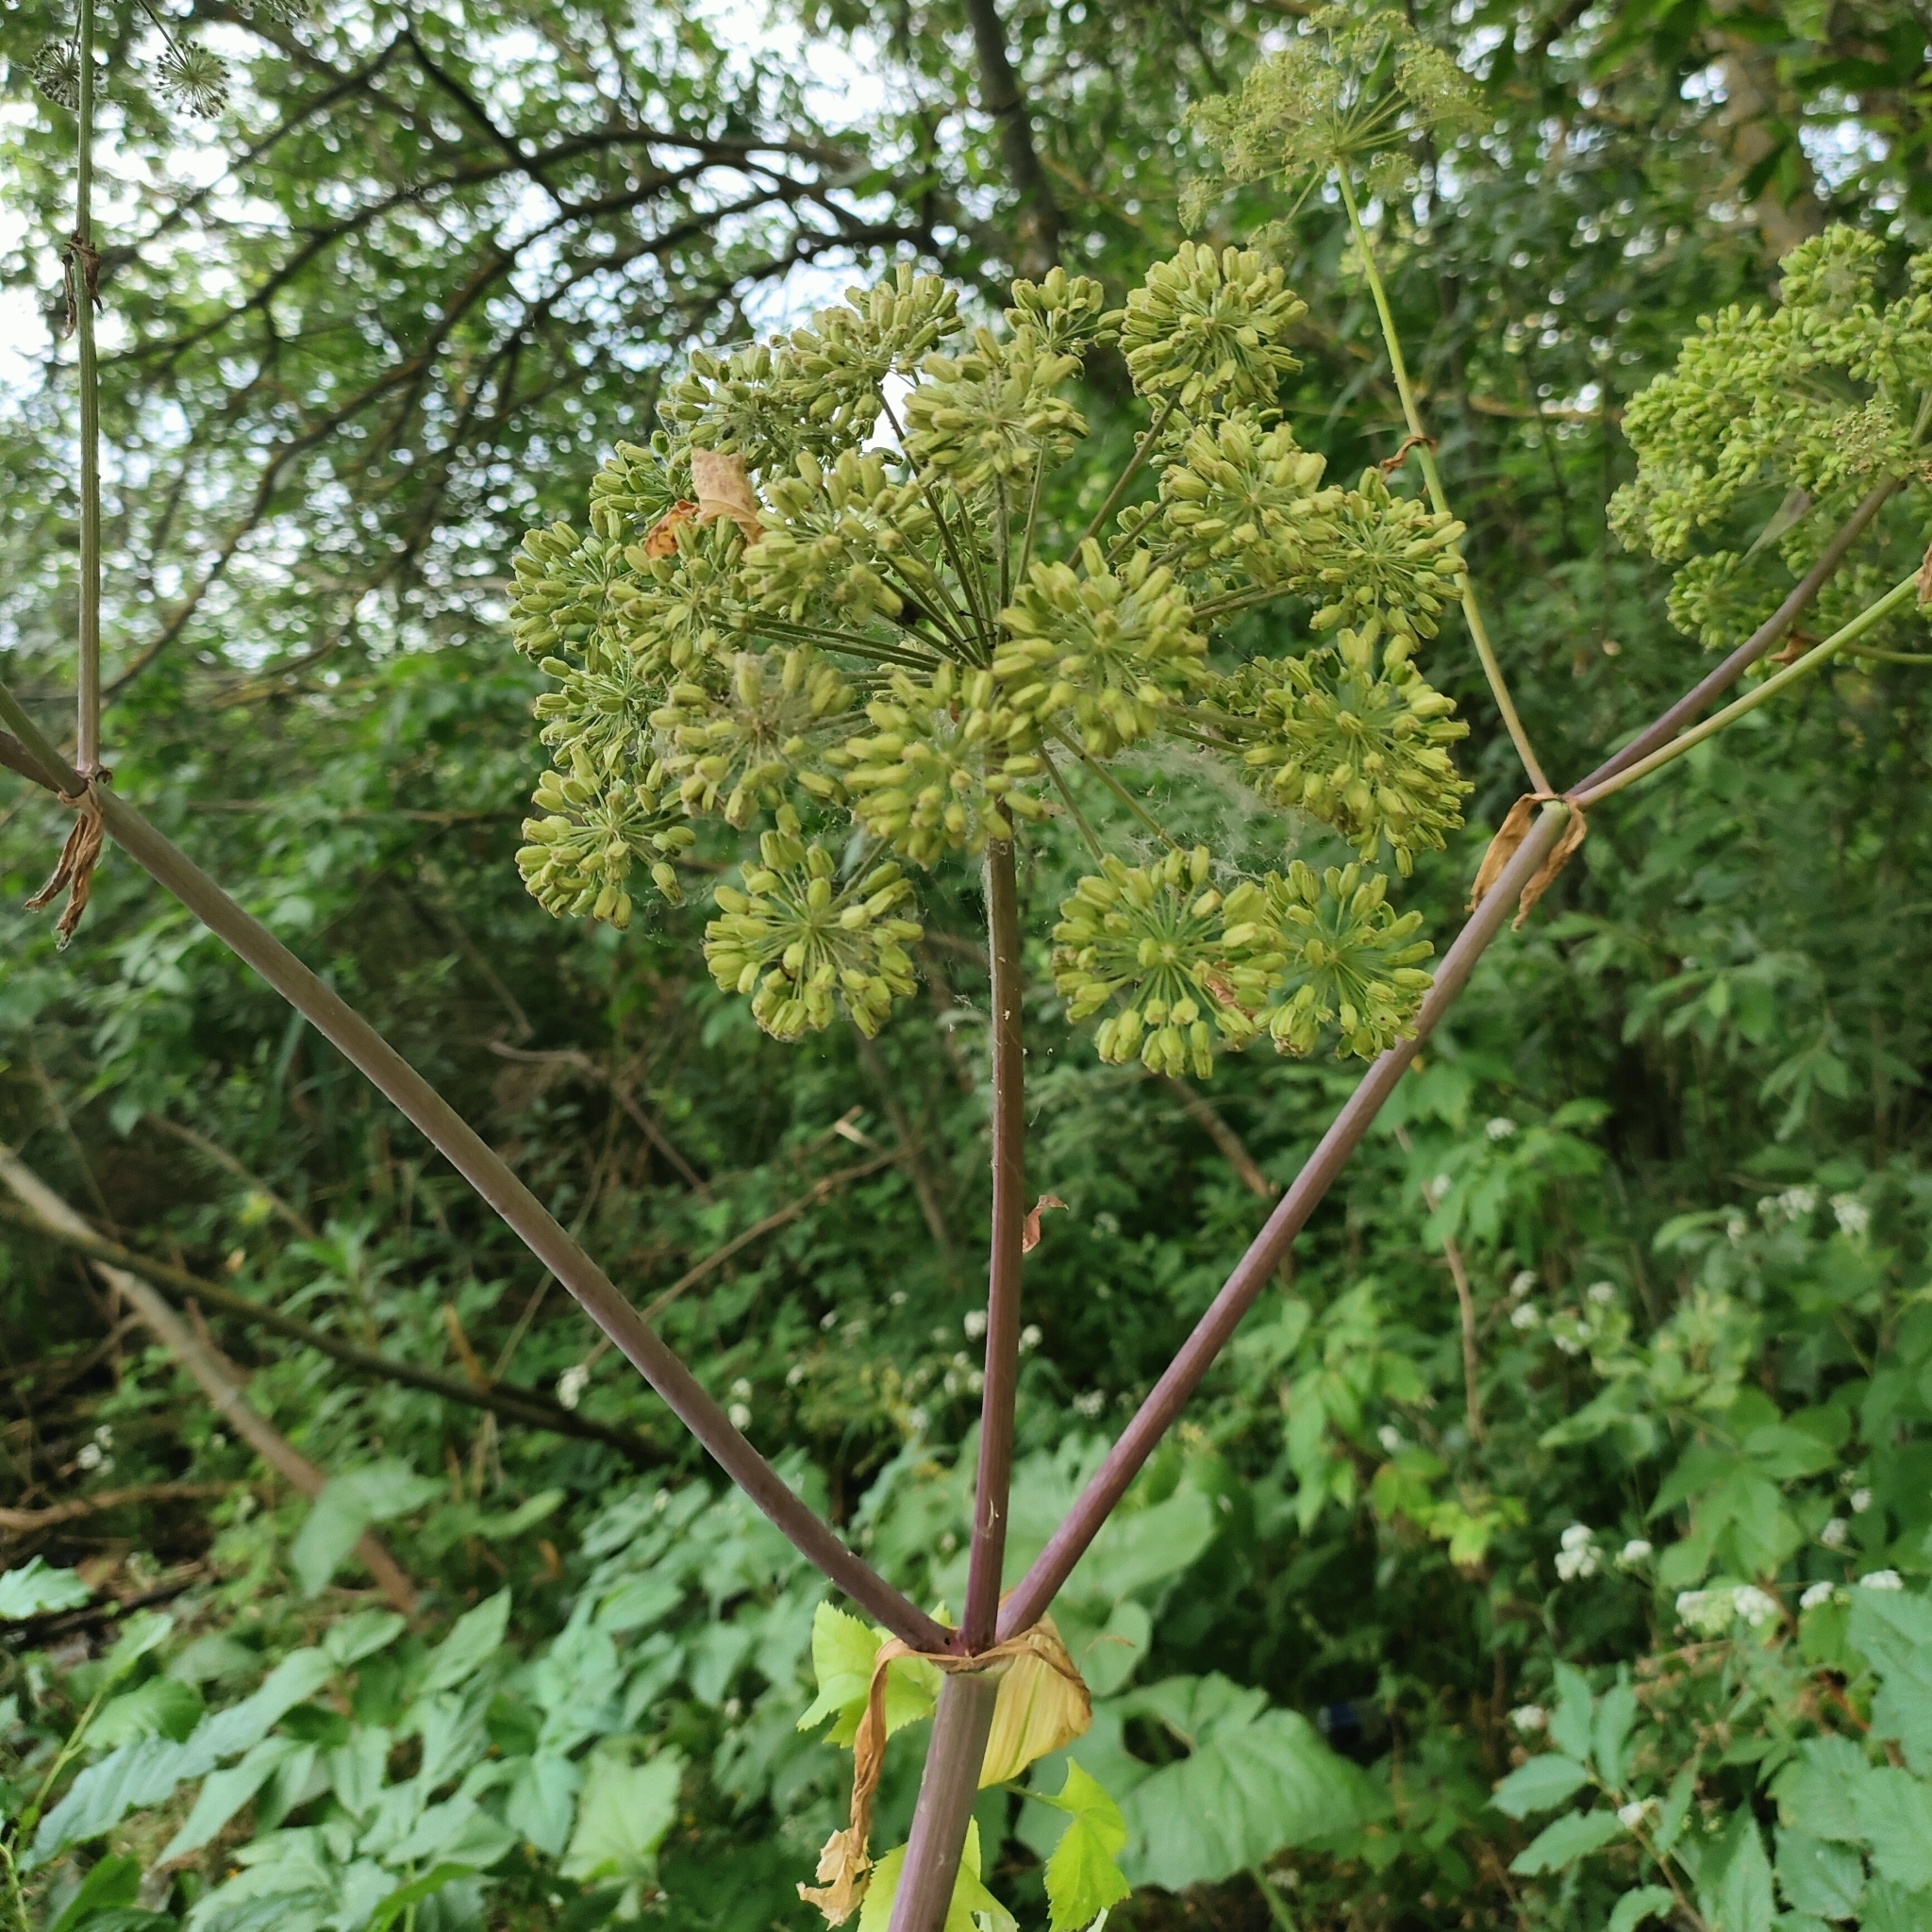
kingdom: Plantae
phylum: Tracheophyta
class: Magnoliopsida
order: Apiales
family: Apiaceae
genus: Angelica
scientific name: Angelica archangelica
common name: Garden angelica
